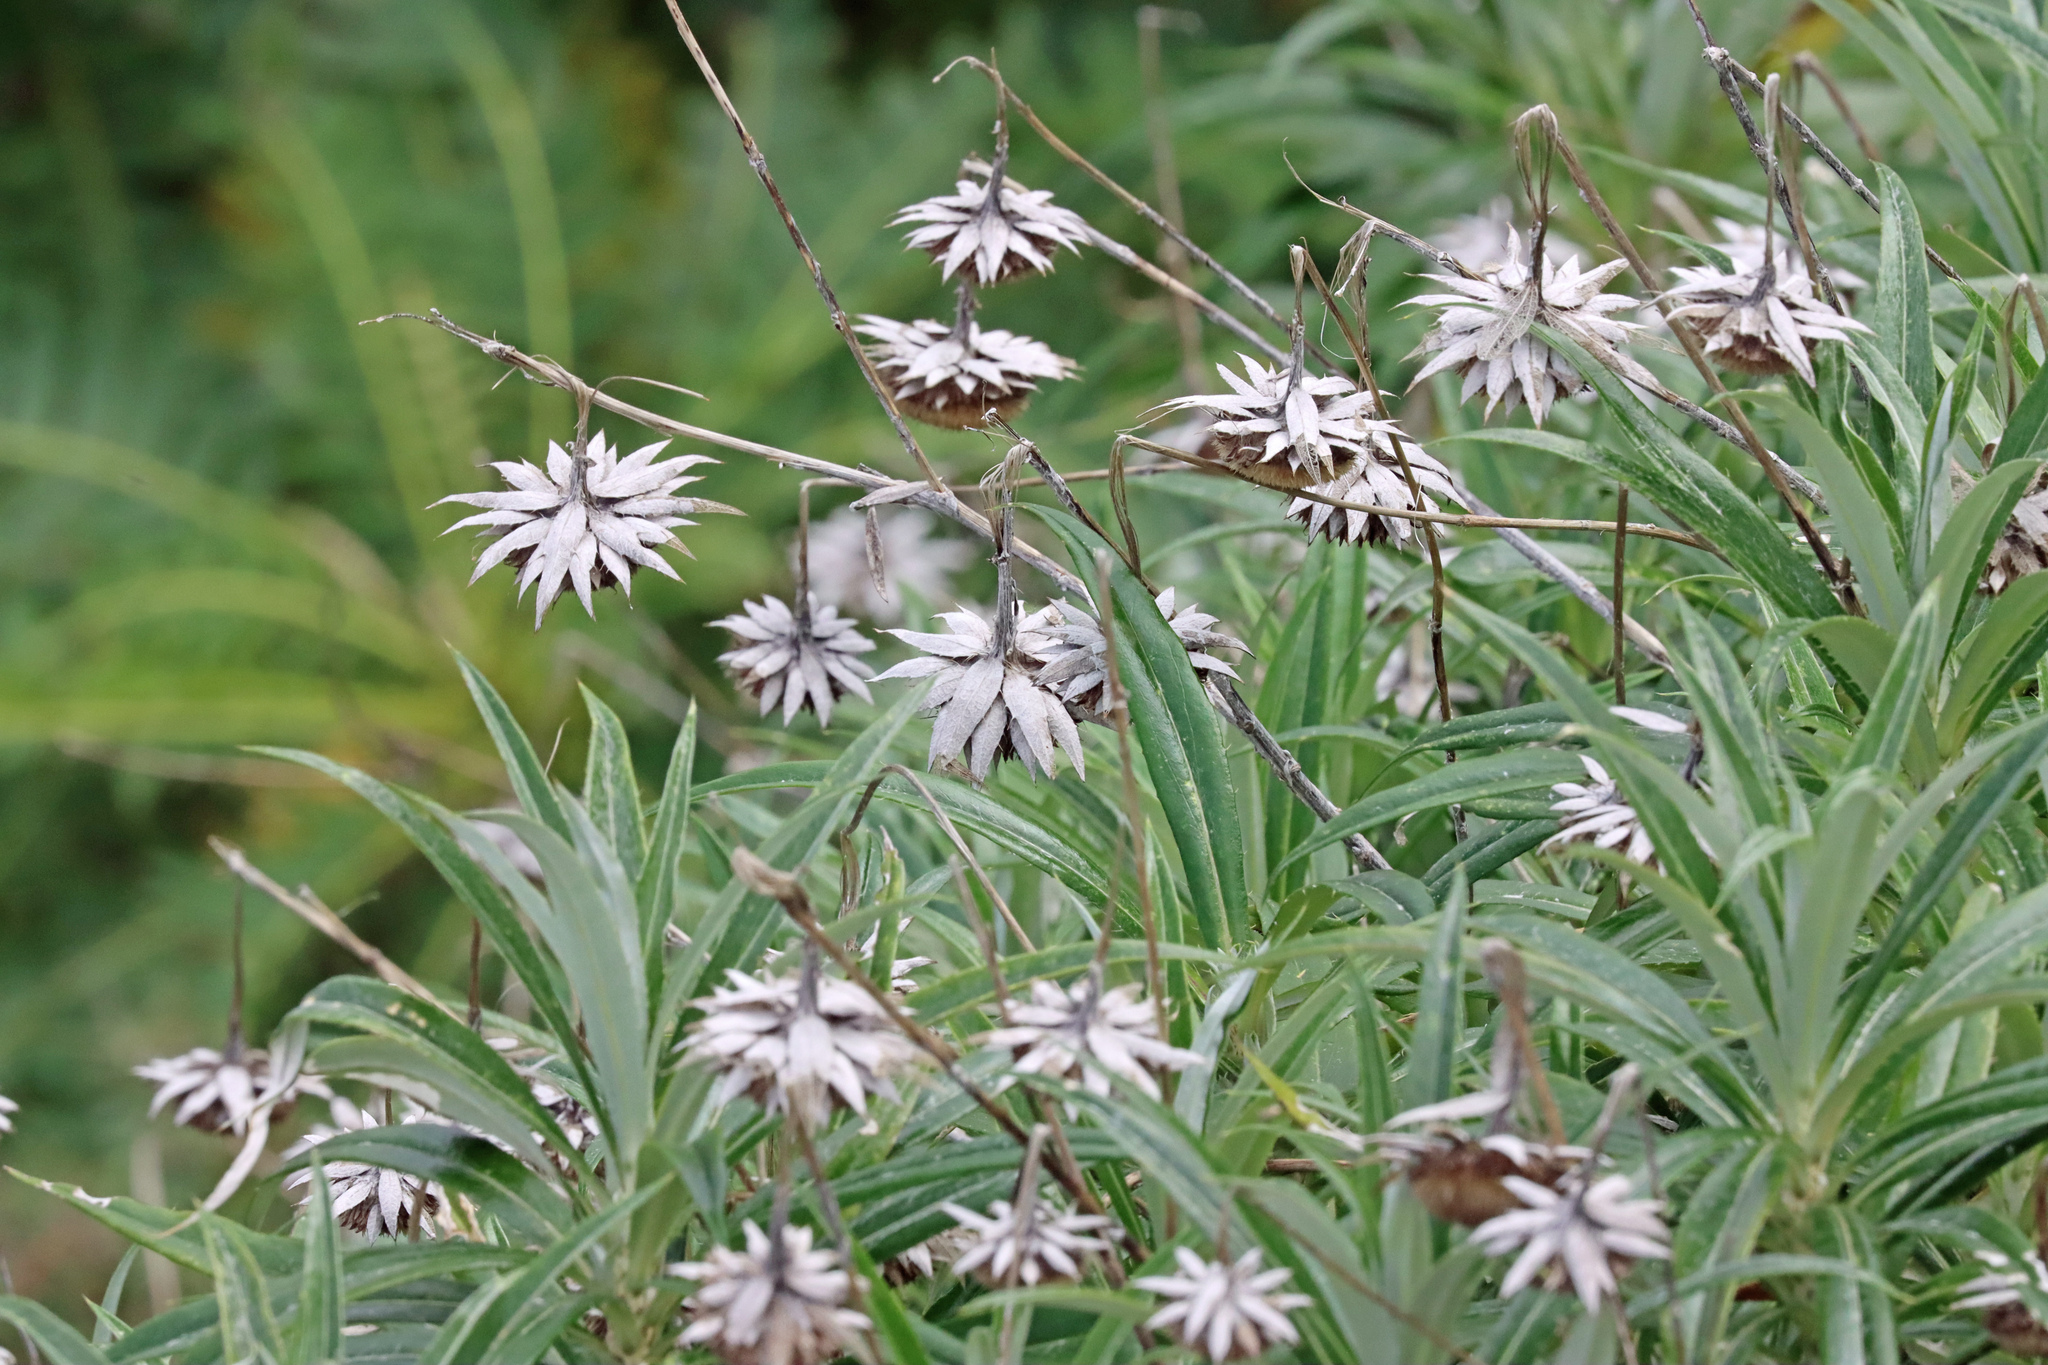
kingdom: Plantae
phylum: Tracheophyta
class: Magnoliopsida
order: Asterales
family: Asteraceae
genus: Carlina
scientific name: Carlina salicifolia
